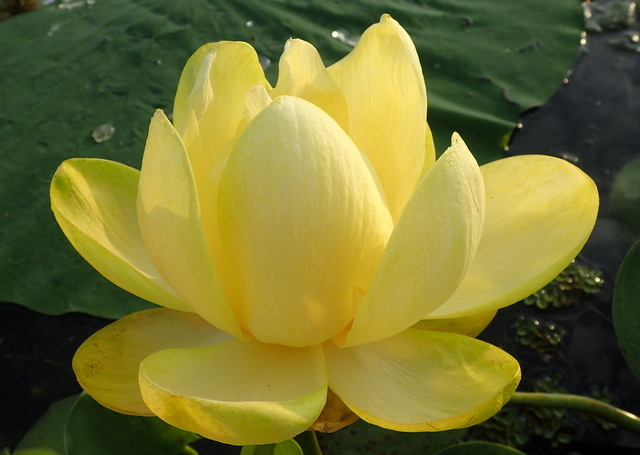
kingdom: Plantae
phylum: Tracheophyta
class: Magnoliopsida
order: Proteales
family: Nelumbonaceae
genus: Nelumbo
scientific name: Nelumbo lutea
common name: American lotus
